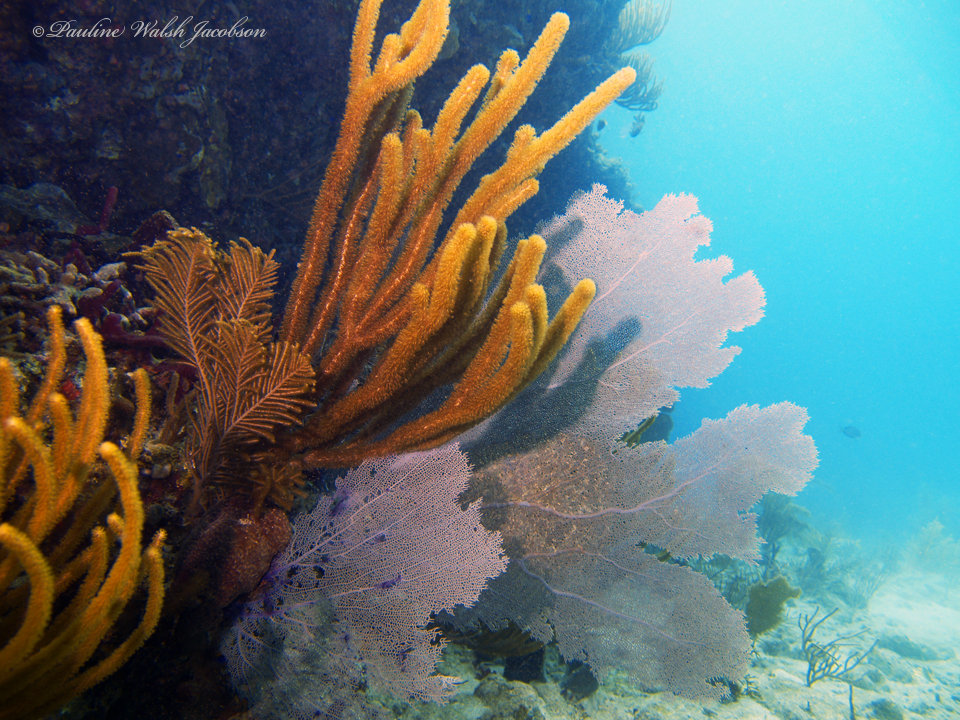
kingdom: Animalia
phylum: Cnidaria
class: Anthozoa
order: Malacalcyonacea
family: Gorgoniidae
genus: Gorgonia
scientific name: Gorgonia ventalina
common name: Common sea fan
